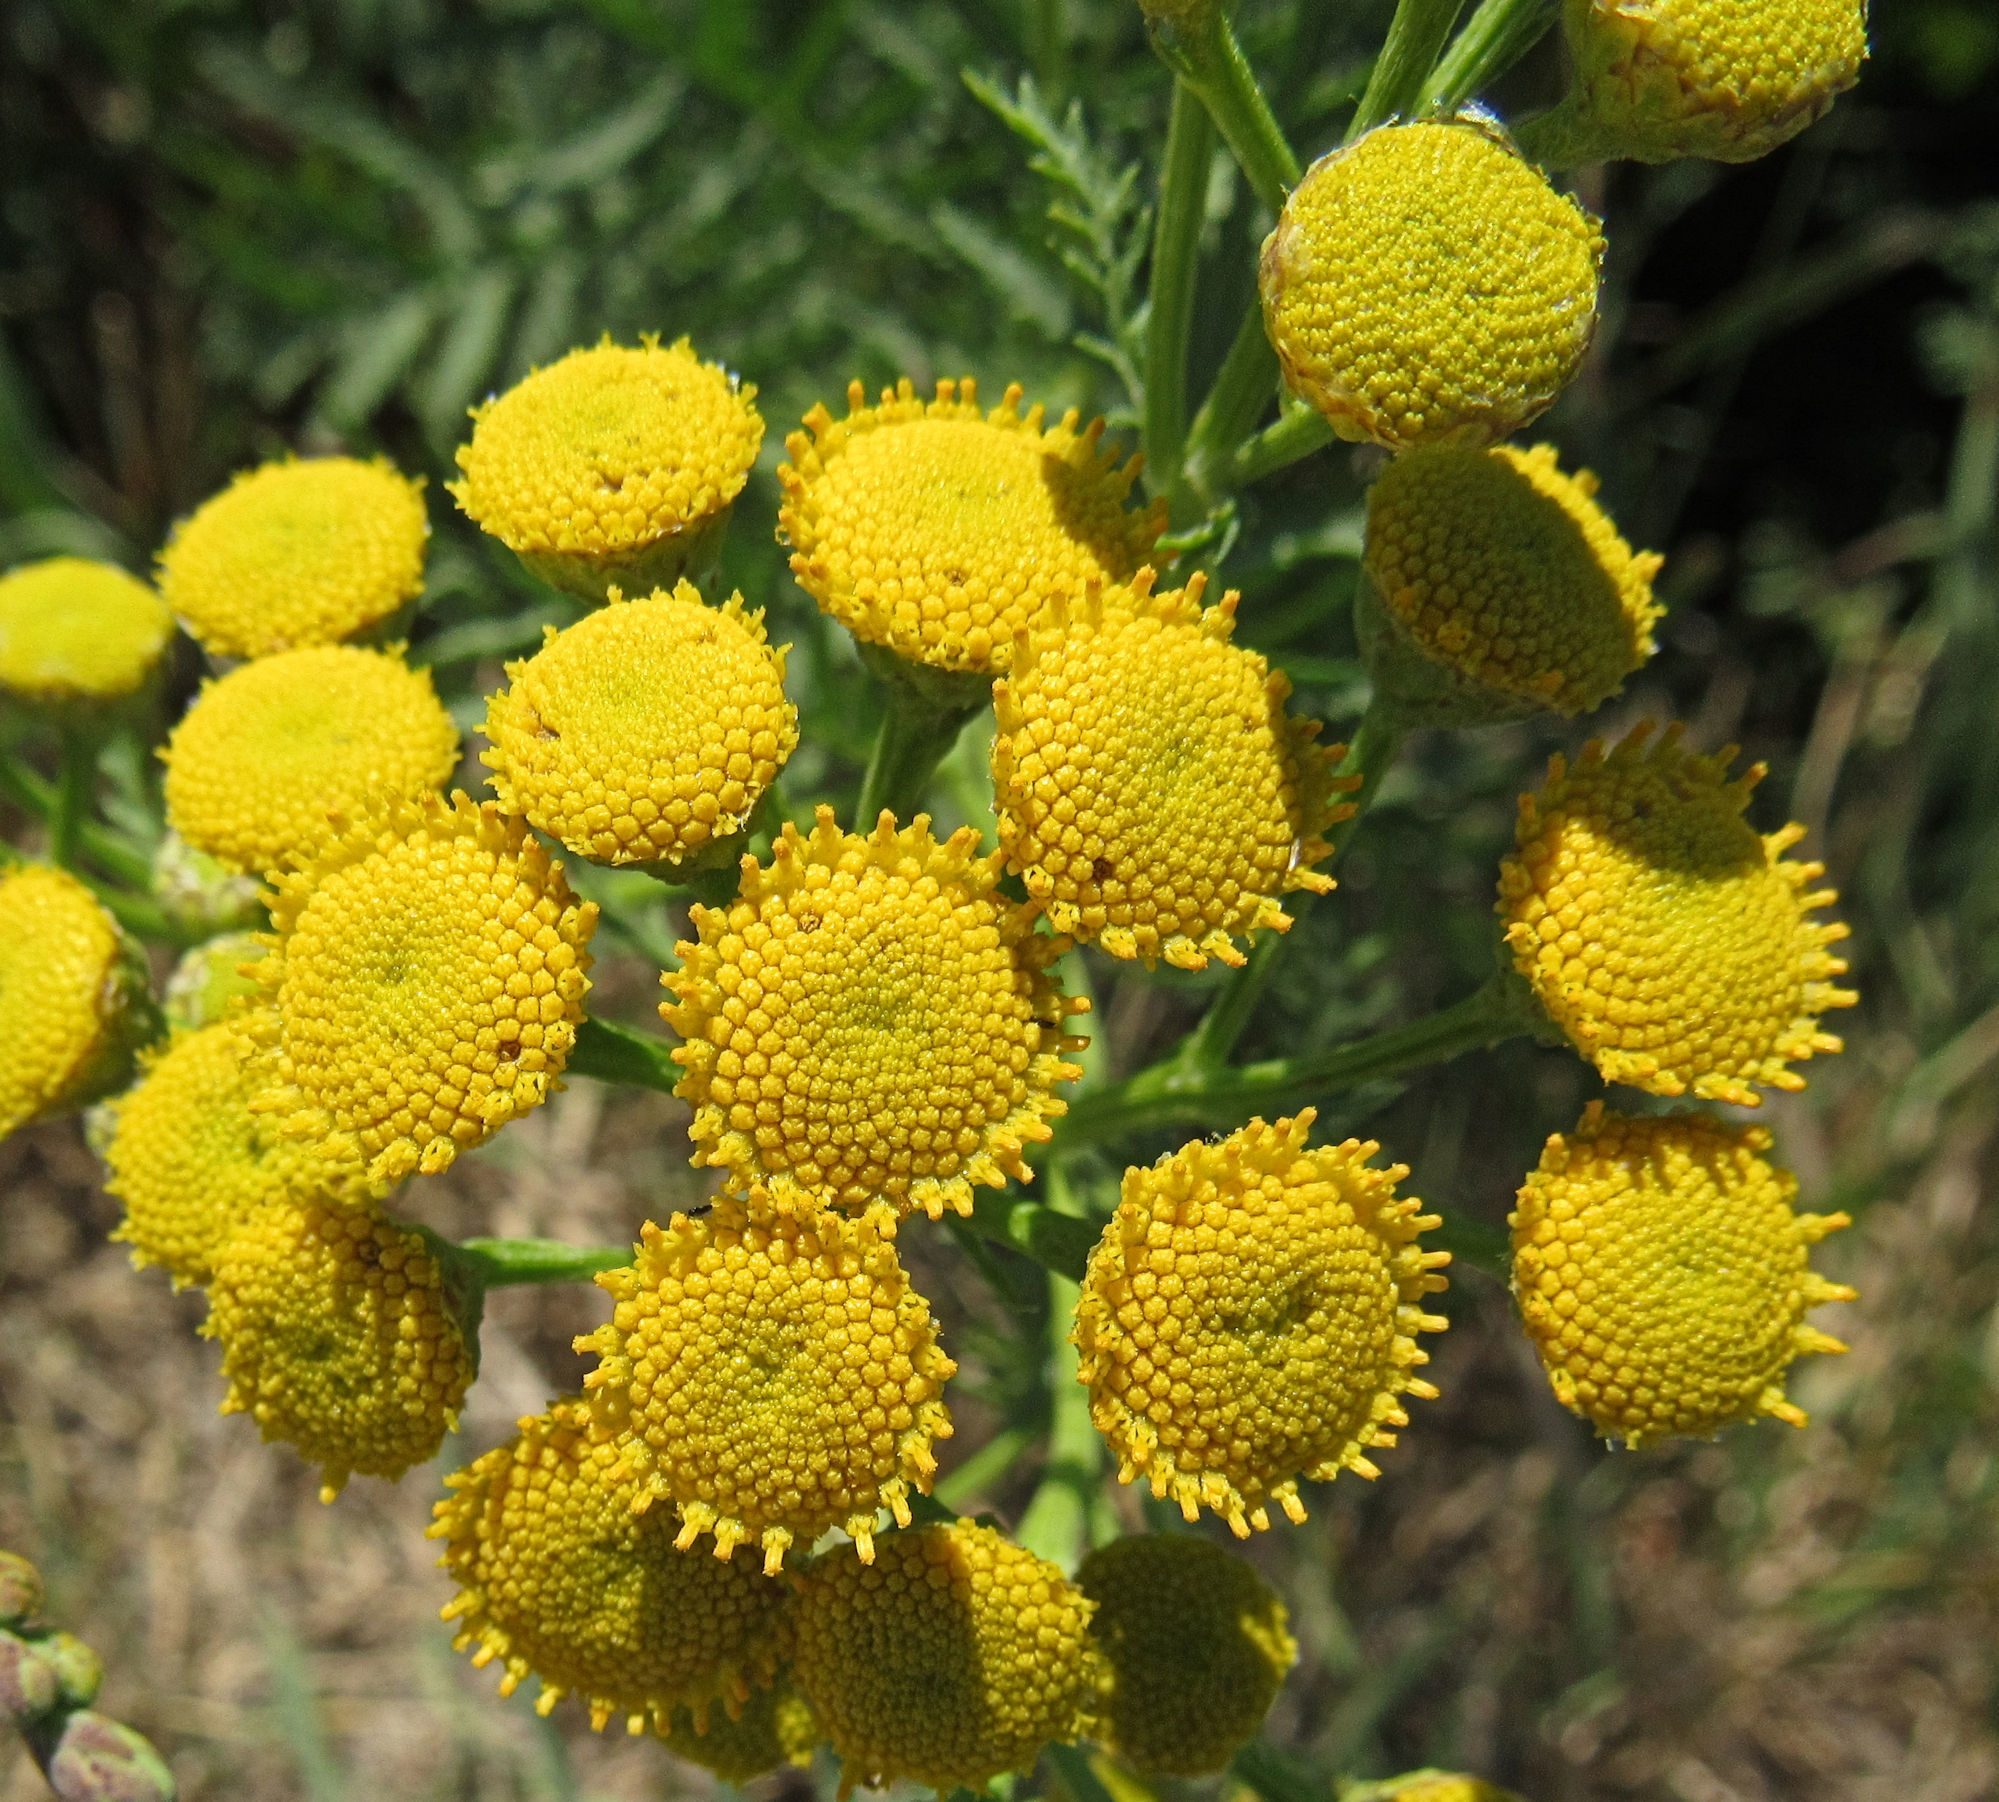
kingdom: Plantae
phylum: Tracheophyta
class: Magnoliopsida
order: Asterales
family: Asteraceae
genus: Tanacetum
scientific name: Tanacetum vulgare
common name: Common tansy
